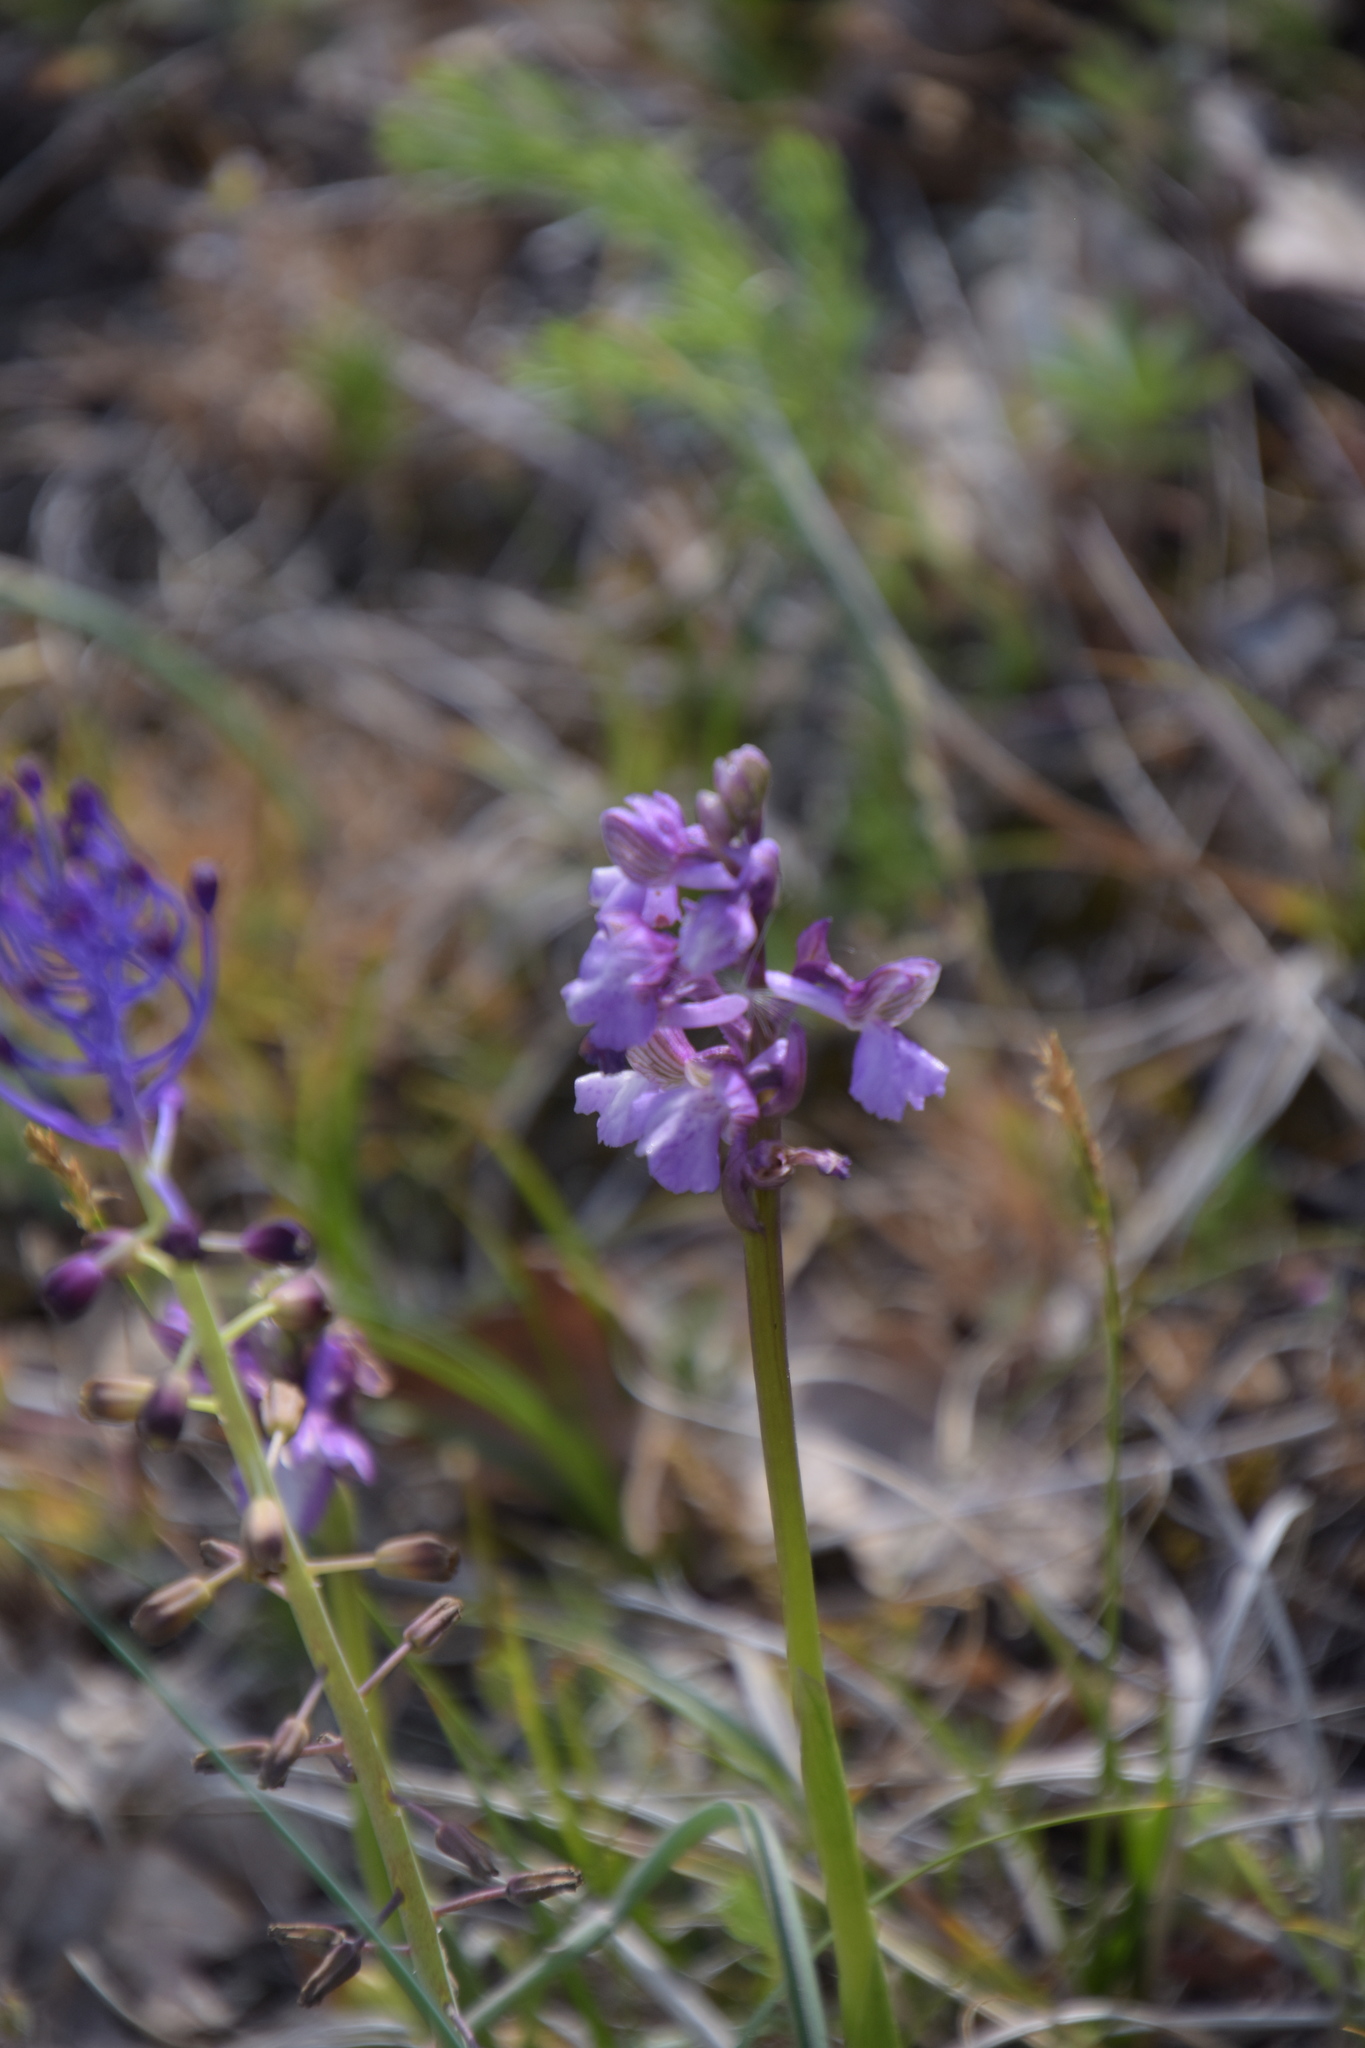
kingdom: Plantae
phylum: Tracheophyta
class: Liliopsida
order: Asparagales
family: Orchidaceae
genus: Anacamptis
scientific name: Anacamptis morio
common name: Green-winged orchid
